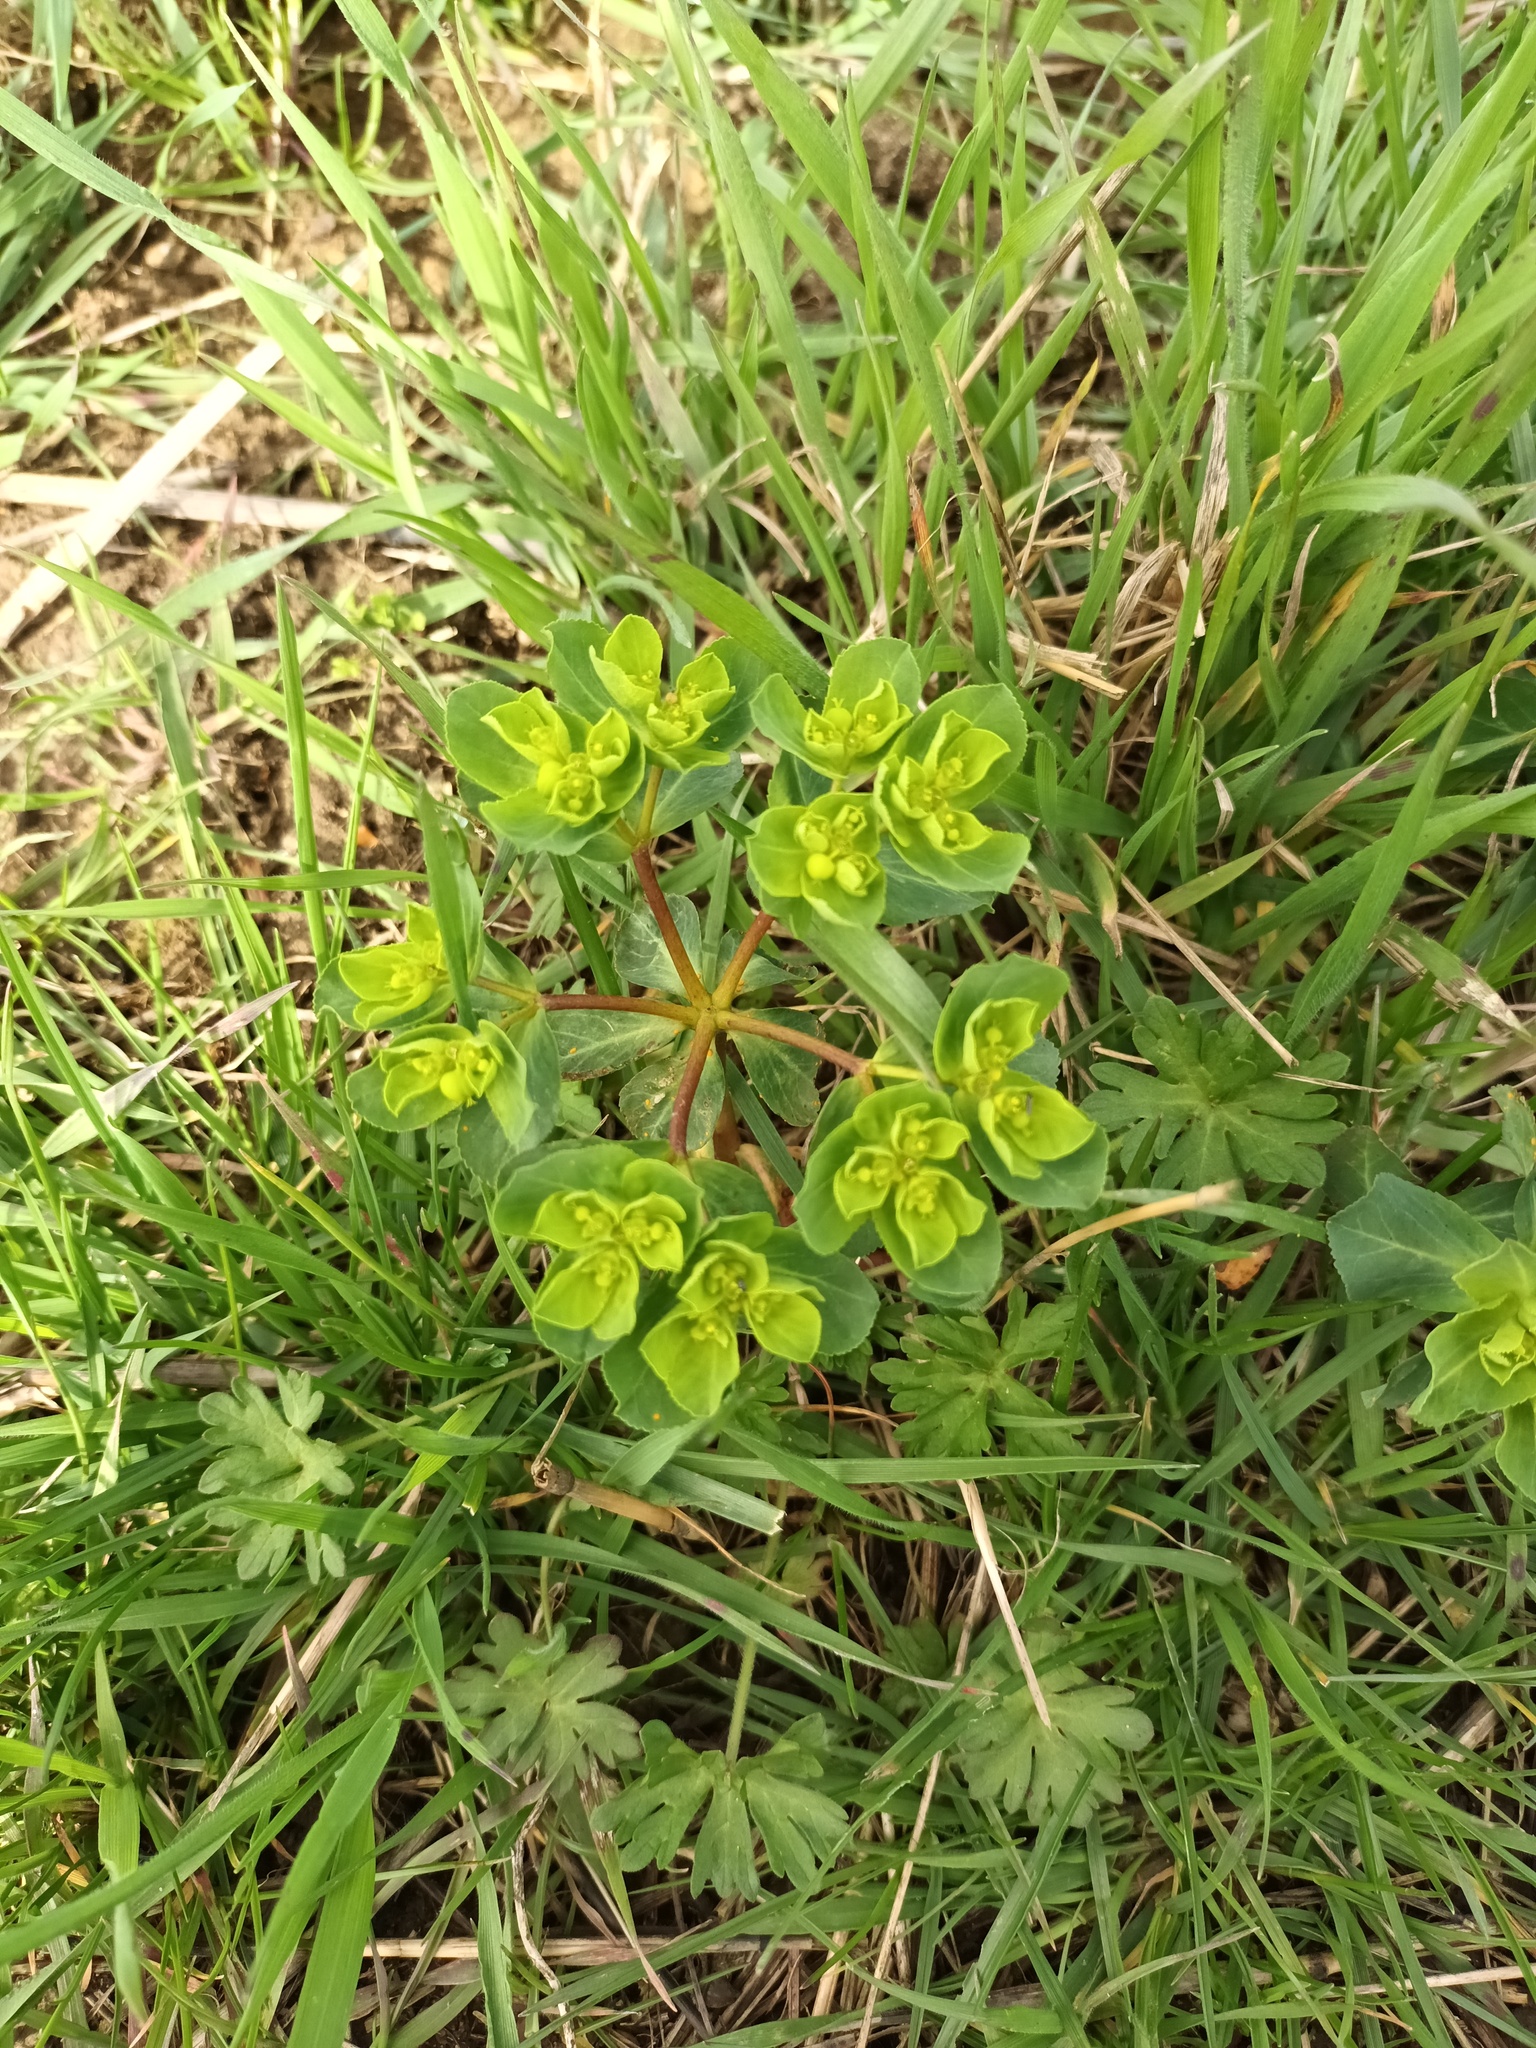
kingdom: Plantae
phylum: Tracheophyta
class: Magnoliopsida
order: Malpighiales
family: Euphorbiaceae
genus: Euphorbia
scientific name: Euphorbia helioscopia
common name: Sun spurge
